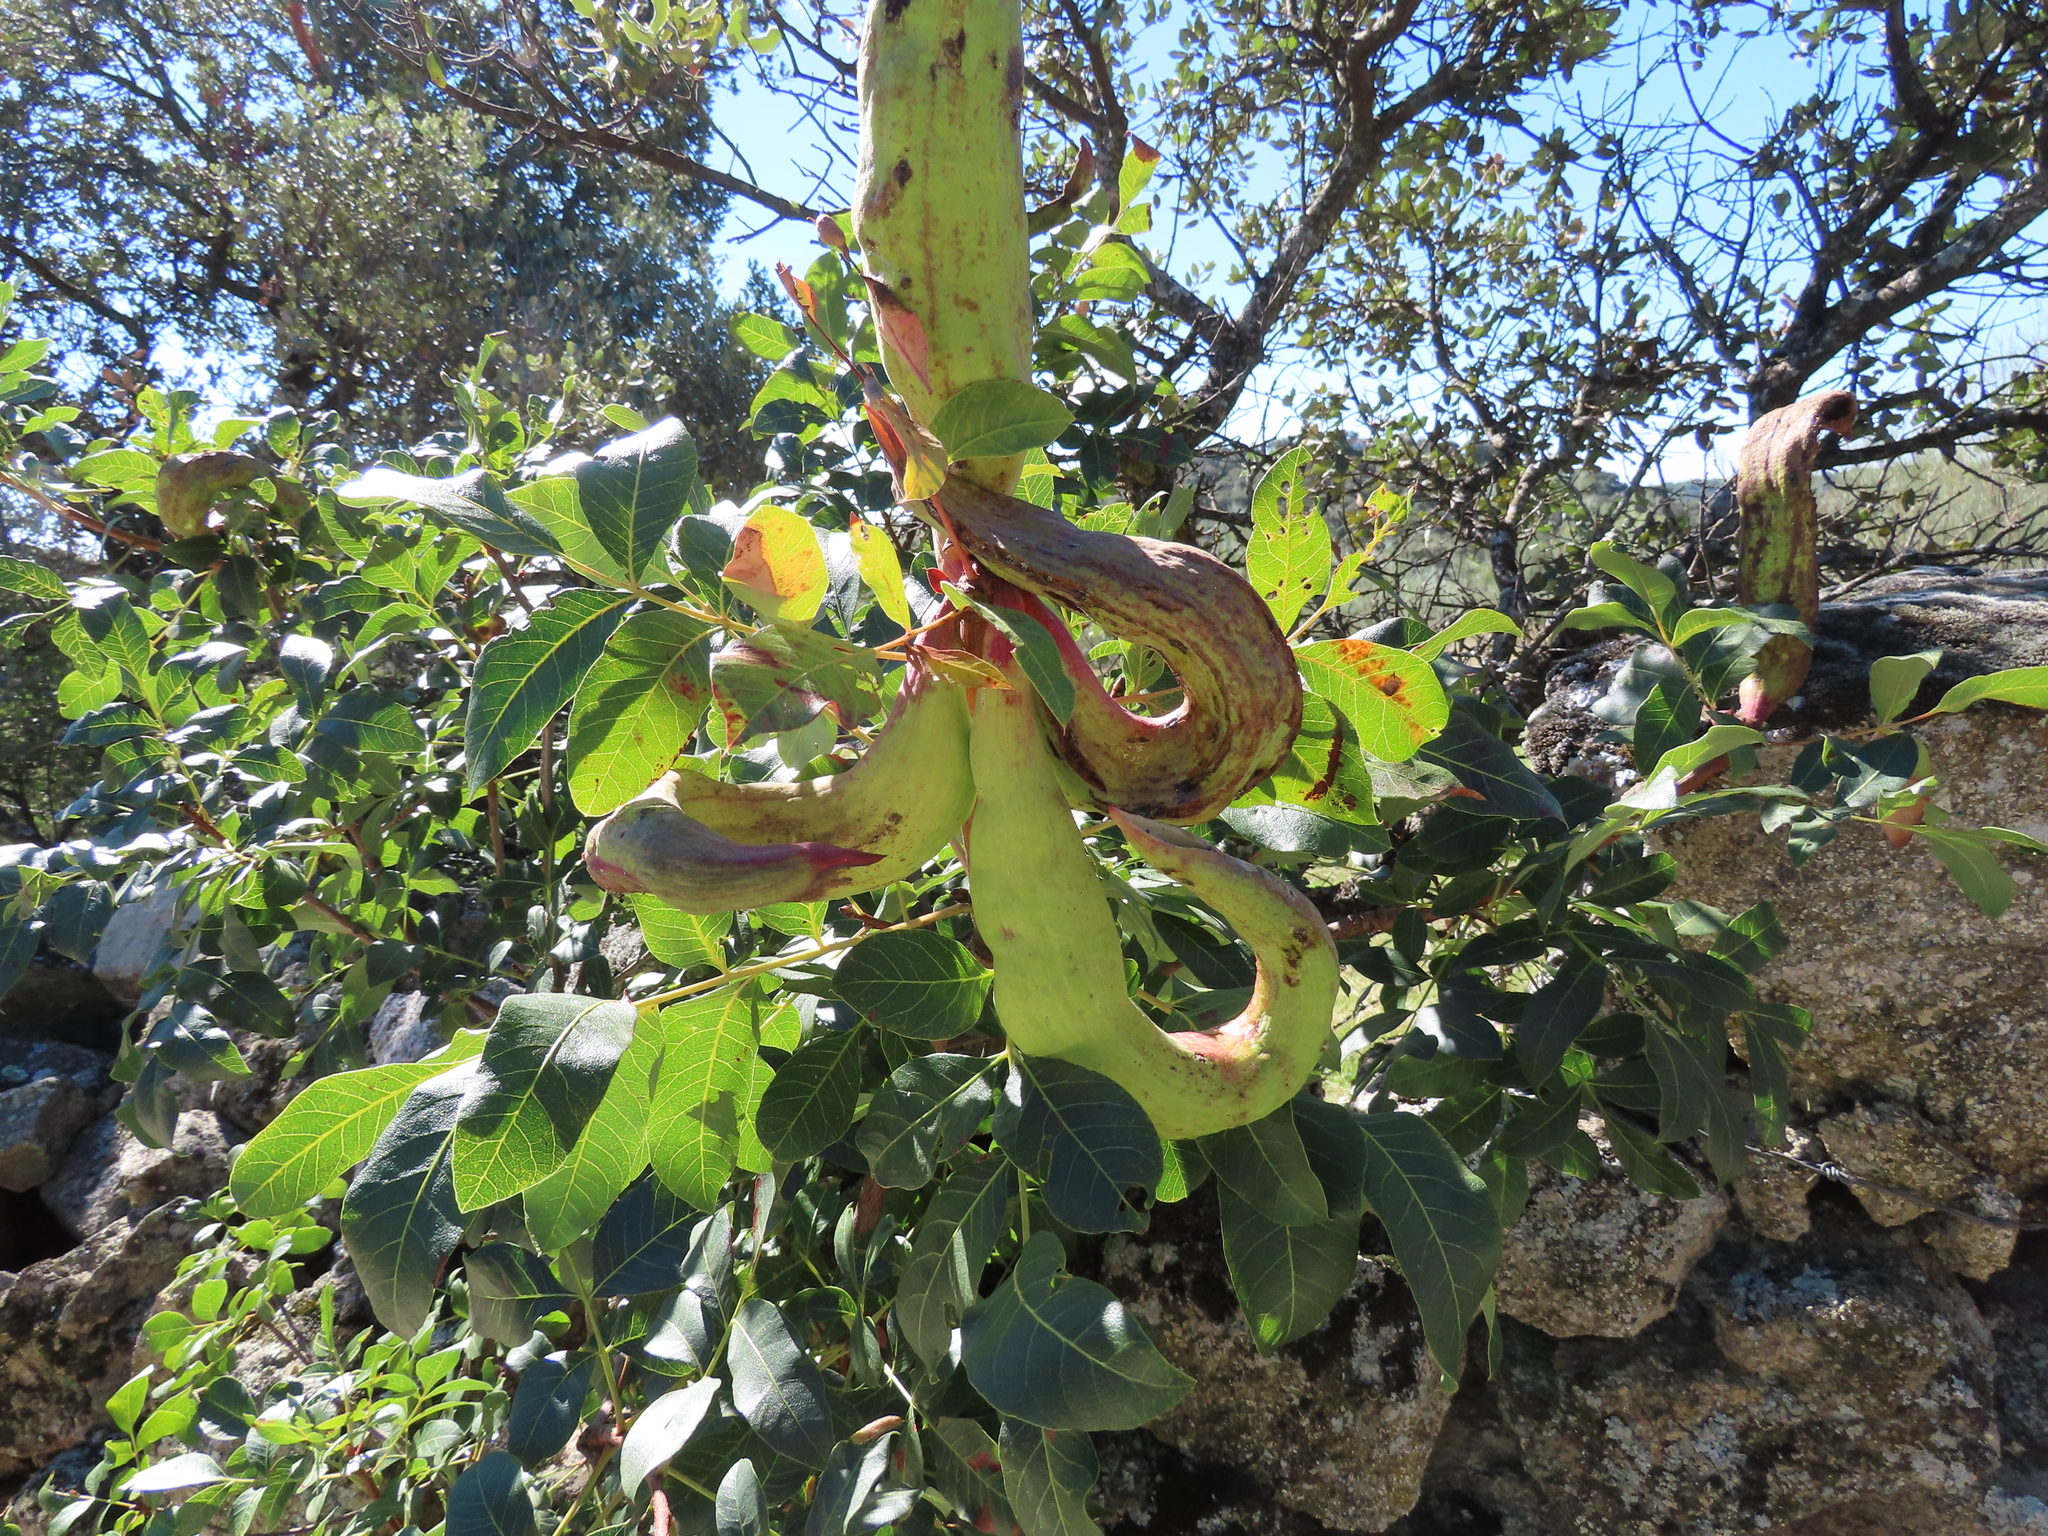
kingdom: Plantae
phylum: Tracheophyta
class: Magnoliopsida
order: Sapindales
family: Anacardiaceae
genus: Pistacia
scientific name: Pistacia terebinthus
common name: Terebinth
